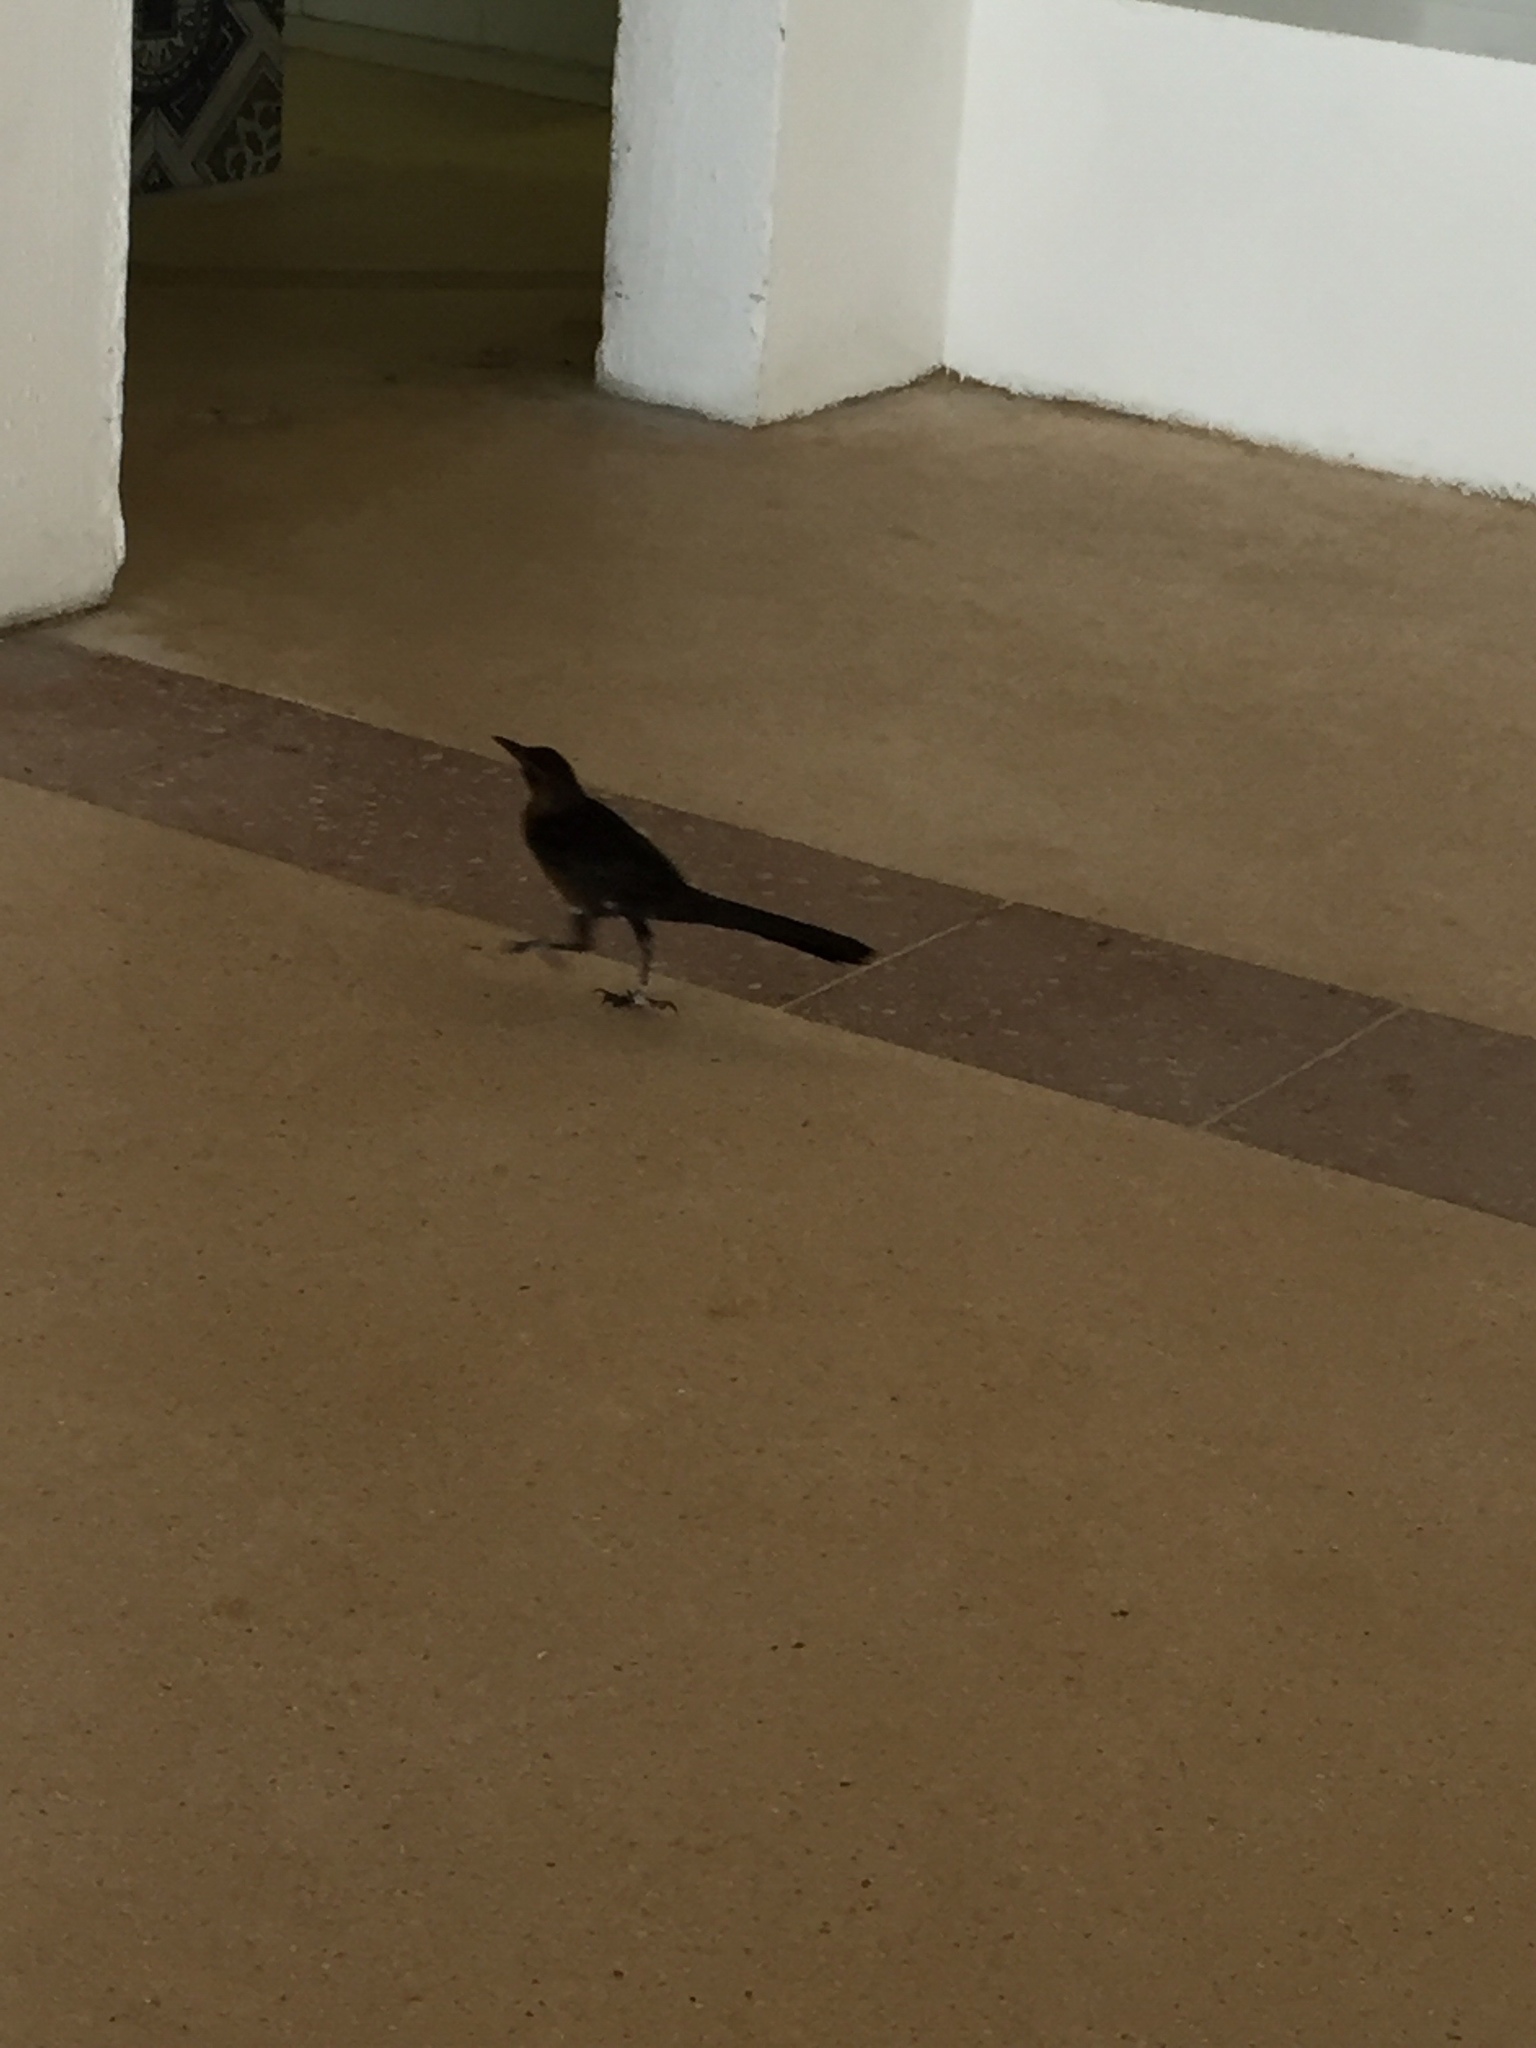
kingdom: Animalia
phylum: Chordata
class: Aves
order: Passeriformes
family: Icteridae
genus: Quiscalus
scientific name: Quiscalus mexicanus
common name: Great-tailed grackle
